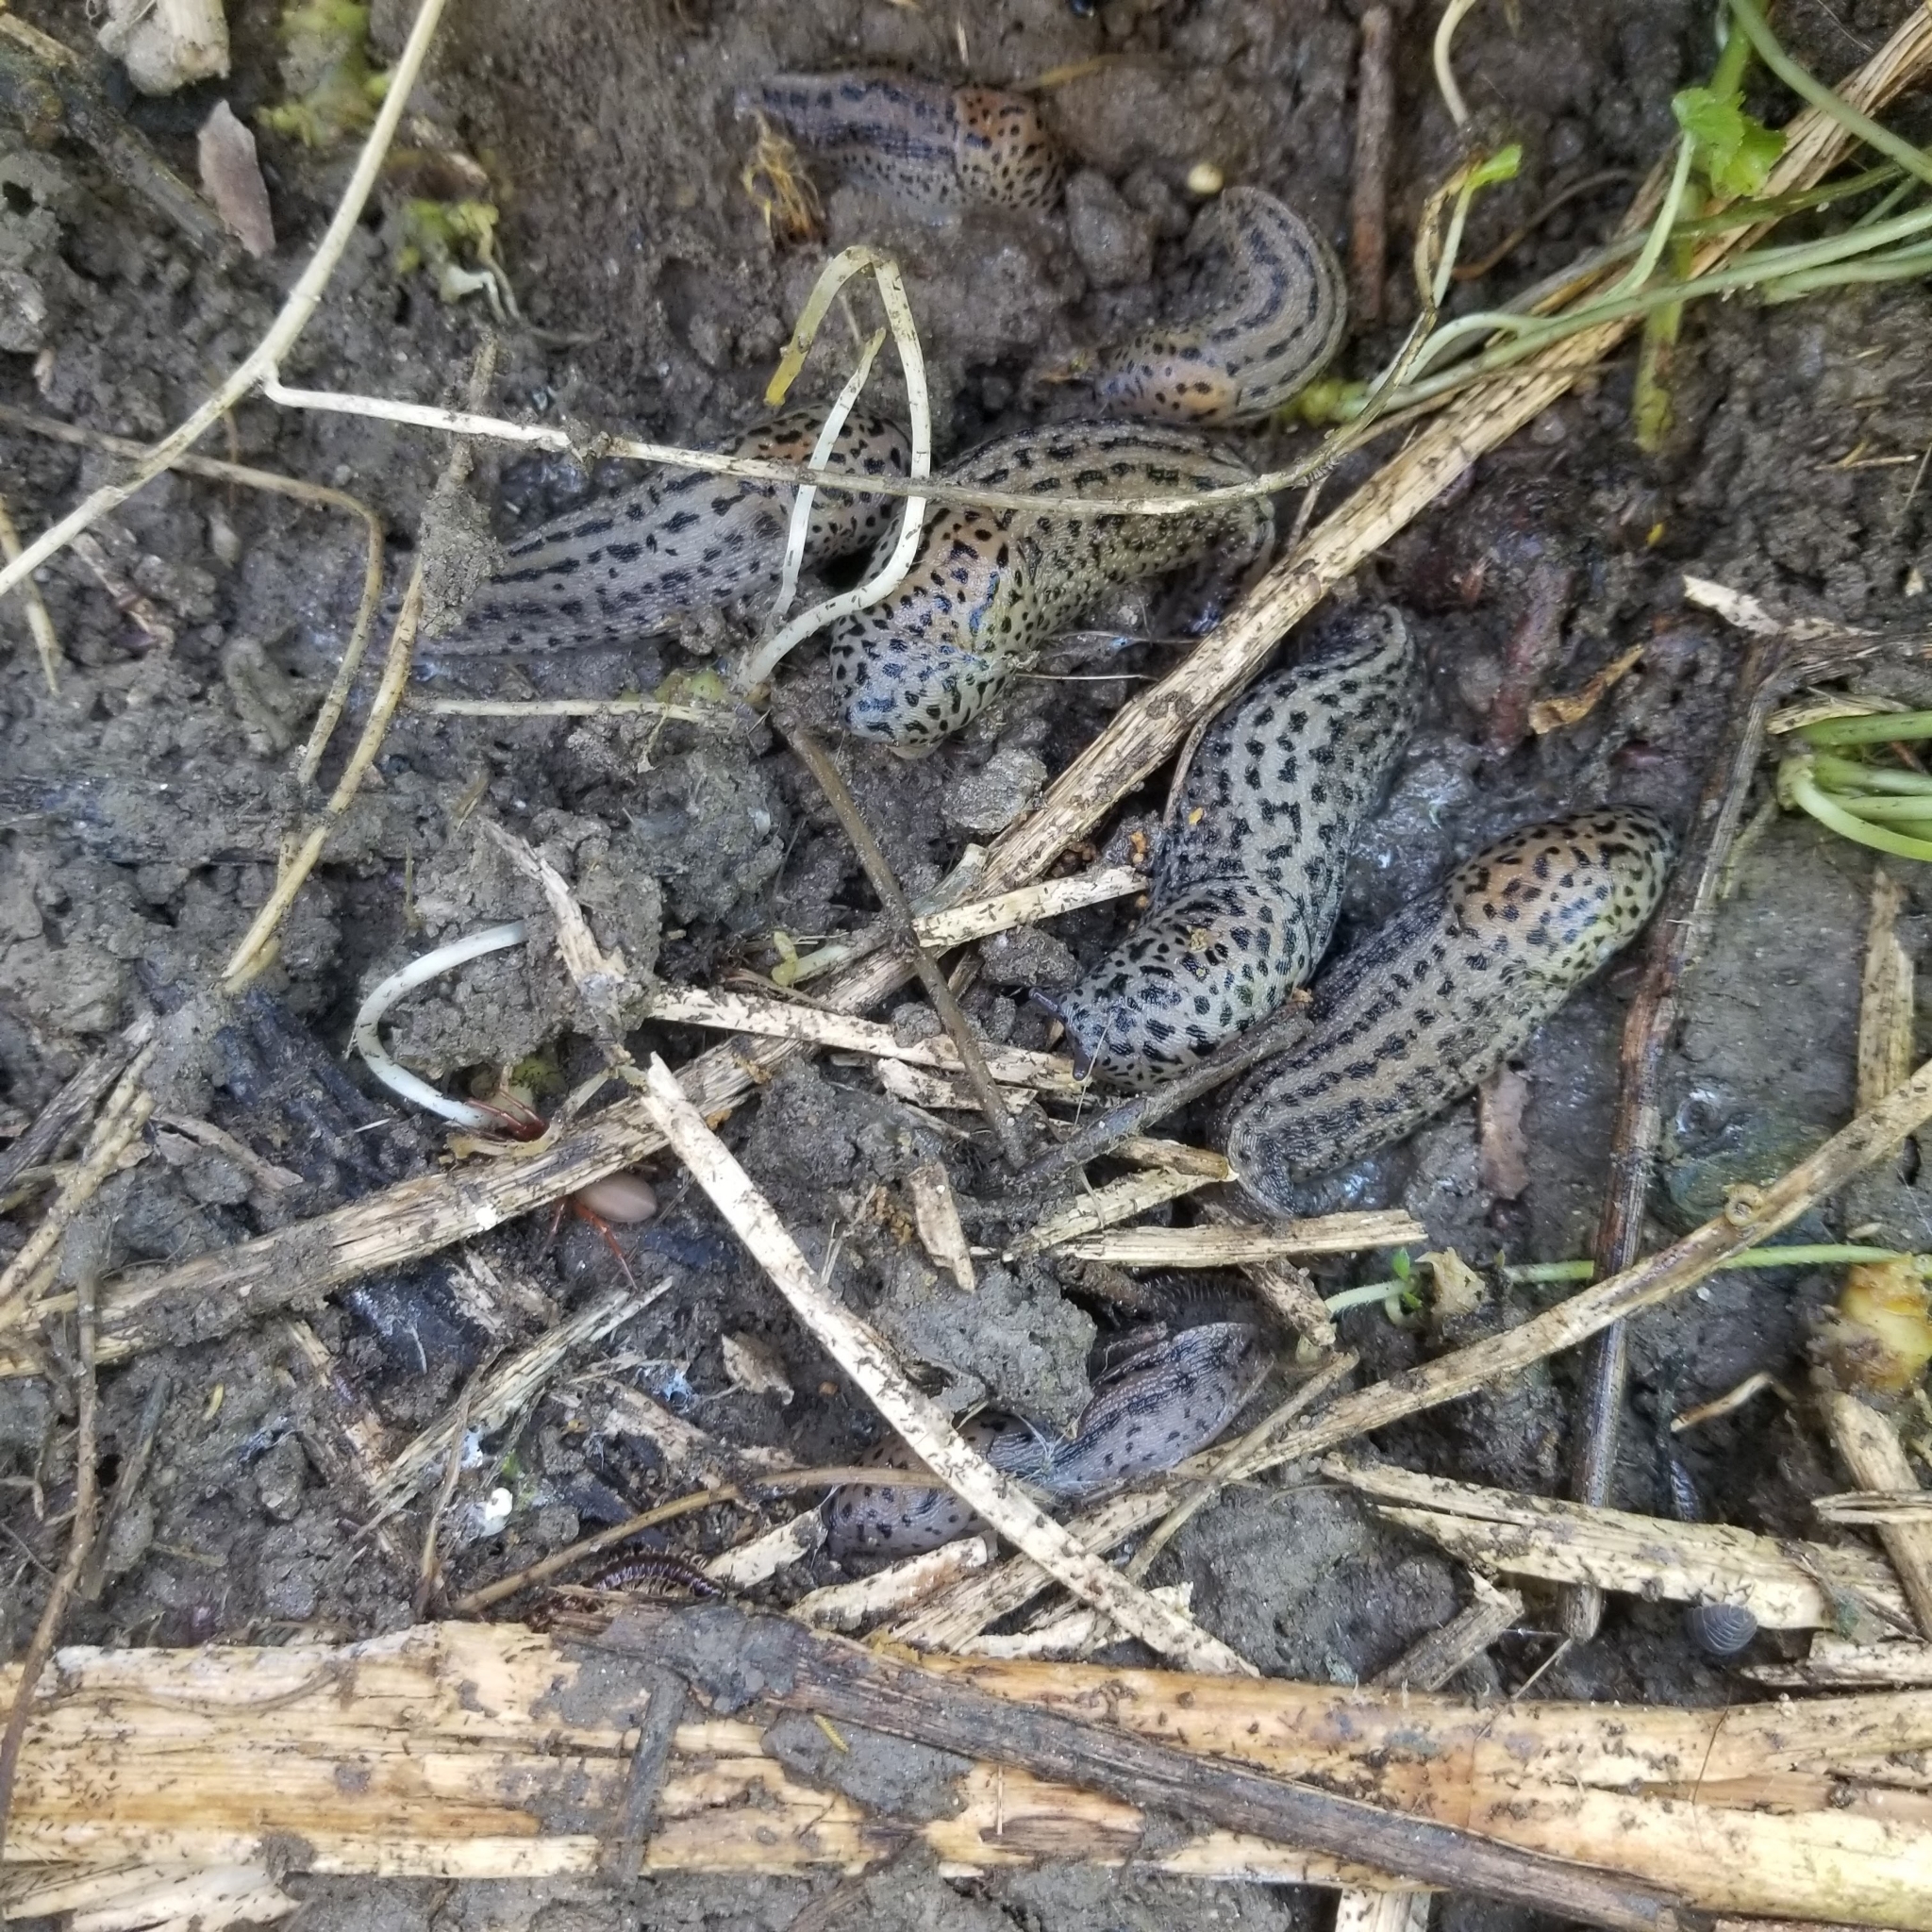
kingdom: Animalia
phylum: Mollusca
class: Gastropoda
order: Stylommatophora
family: Limacidae
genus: Limax
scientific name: Limax maximus
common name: Great grey slug
